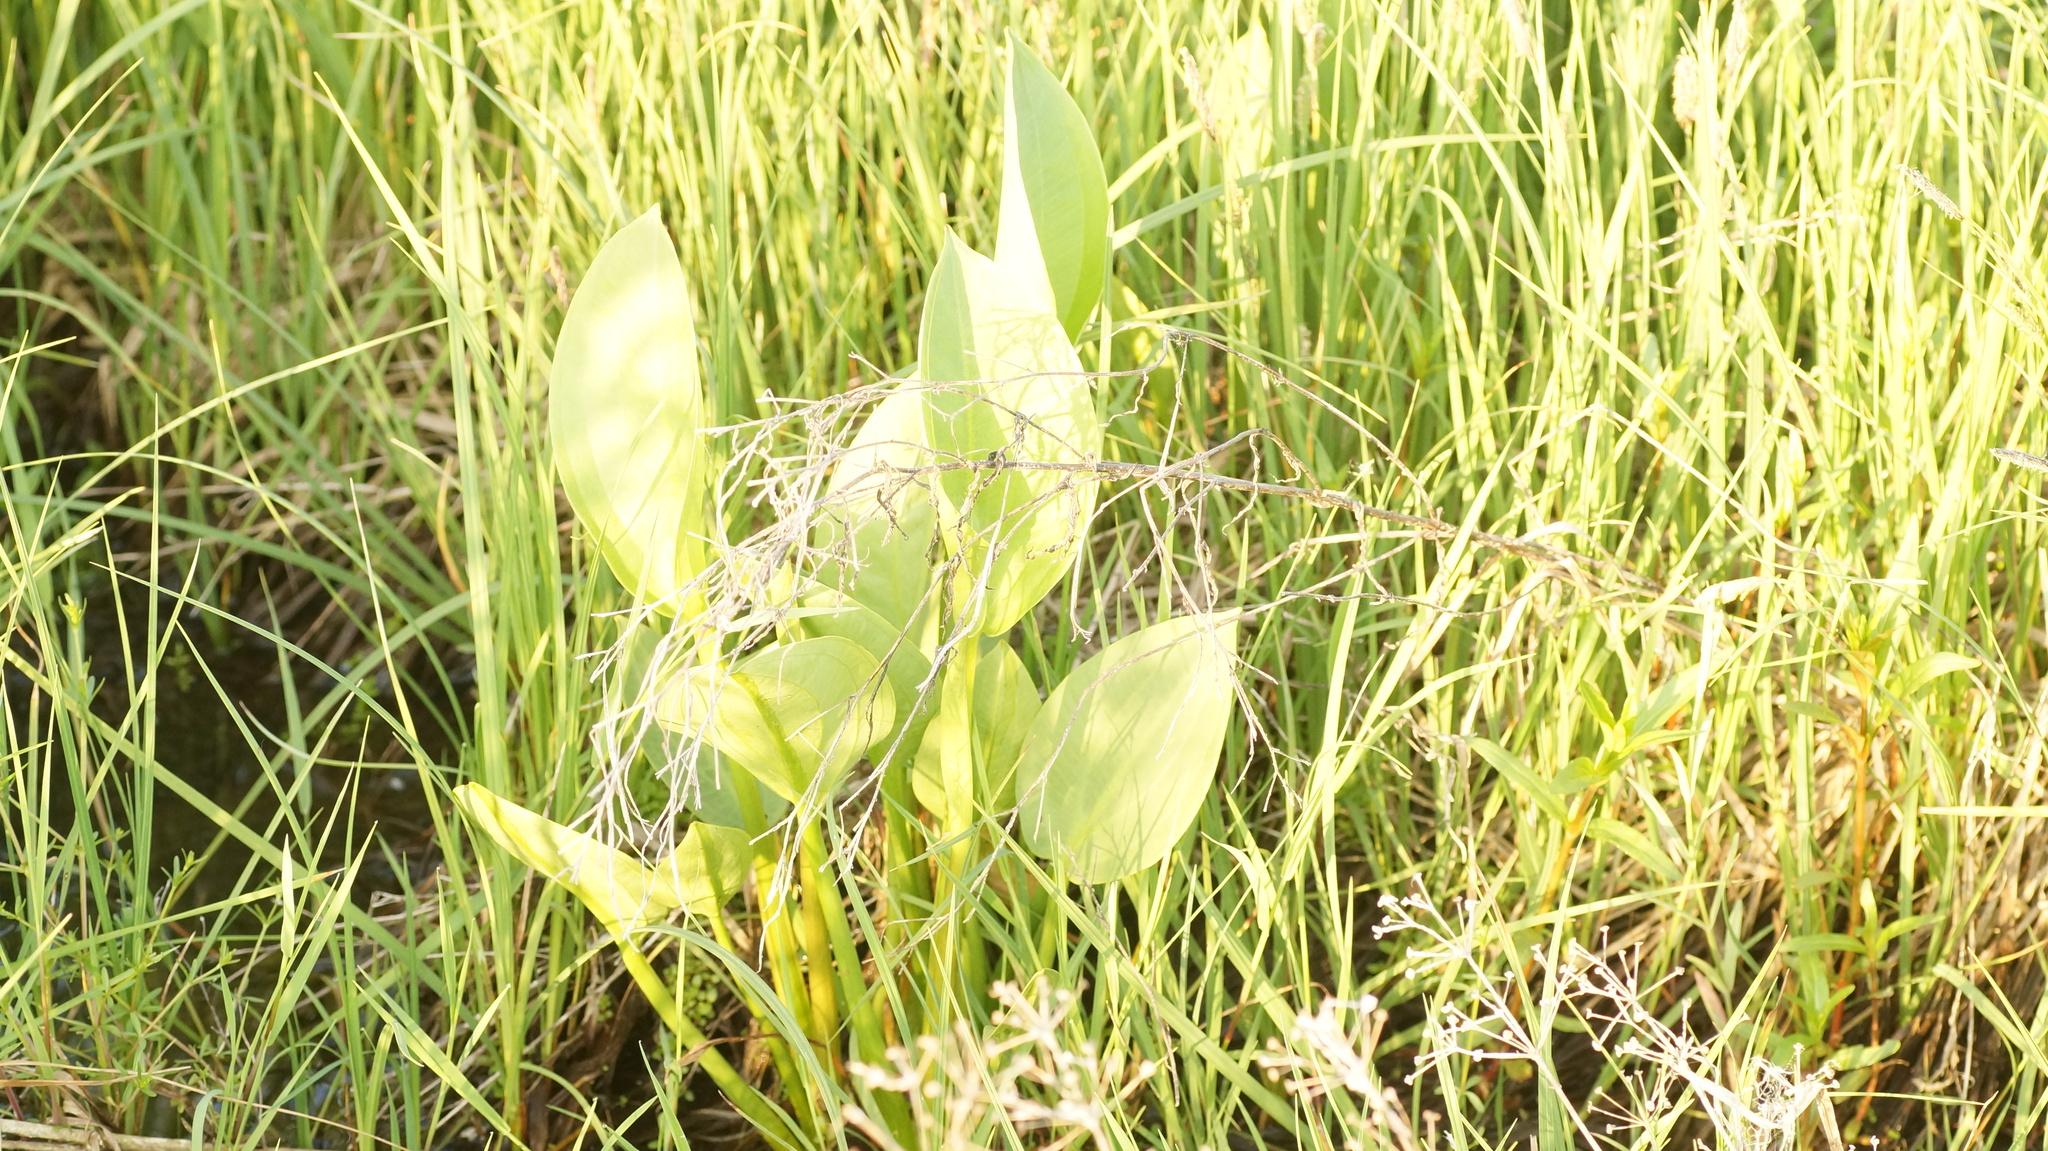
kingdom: Plantae
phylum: Tracheophyta
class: Liliopsida
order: Alismatales
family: Alismataceae
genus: Alisma
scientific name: Alisma plantago-aquatica
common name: Water-plantain
